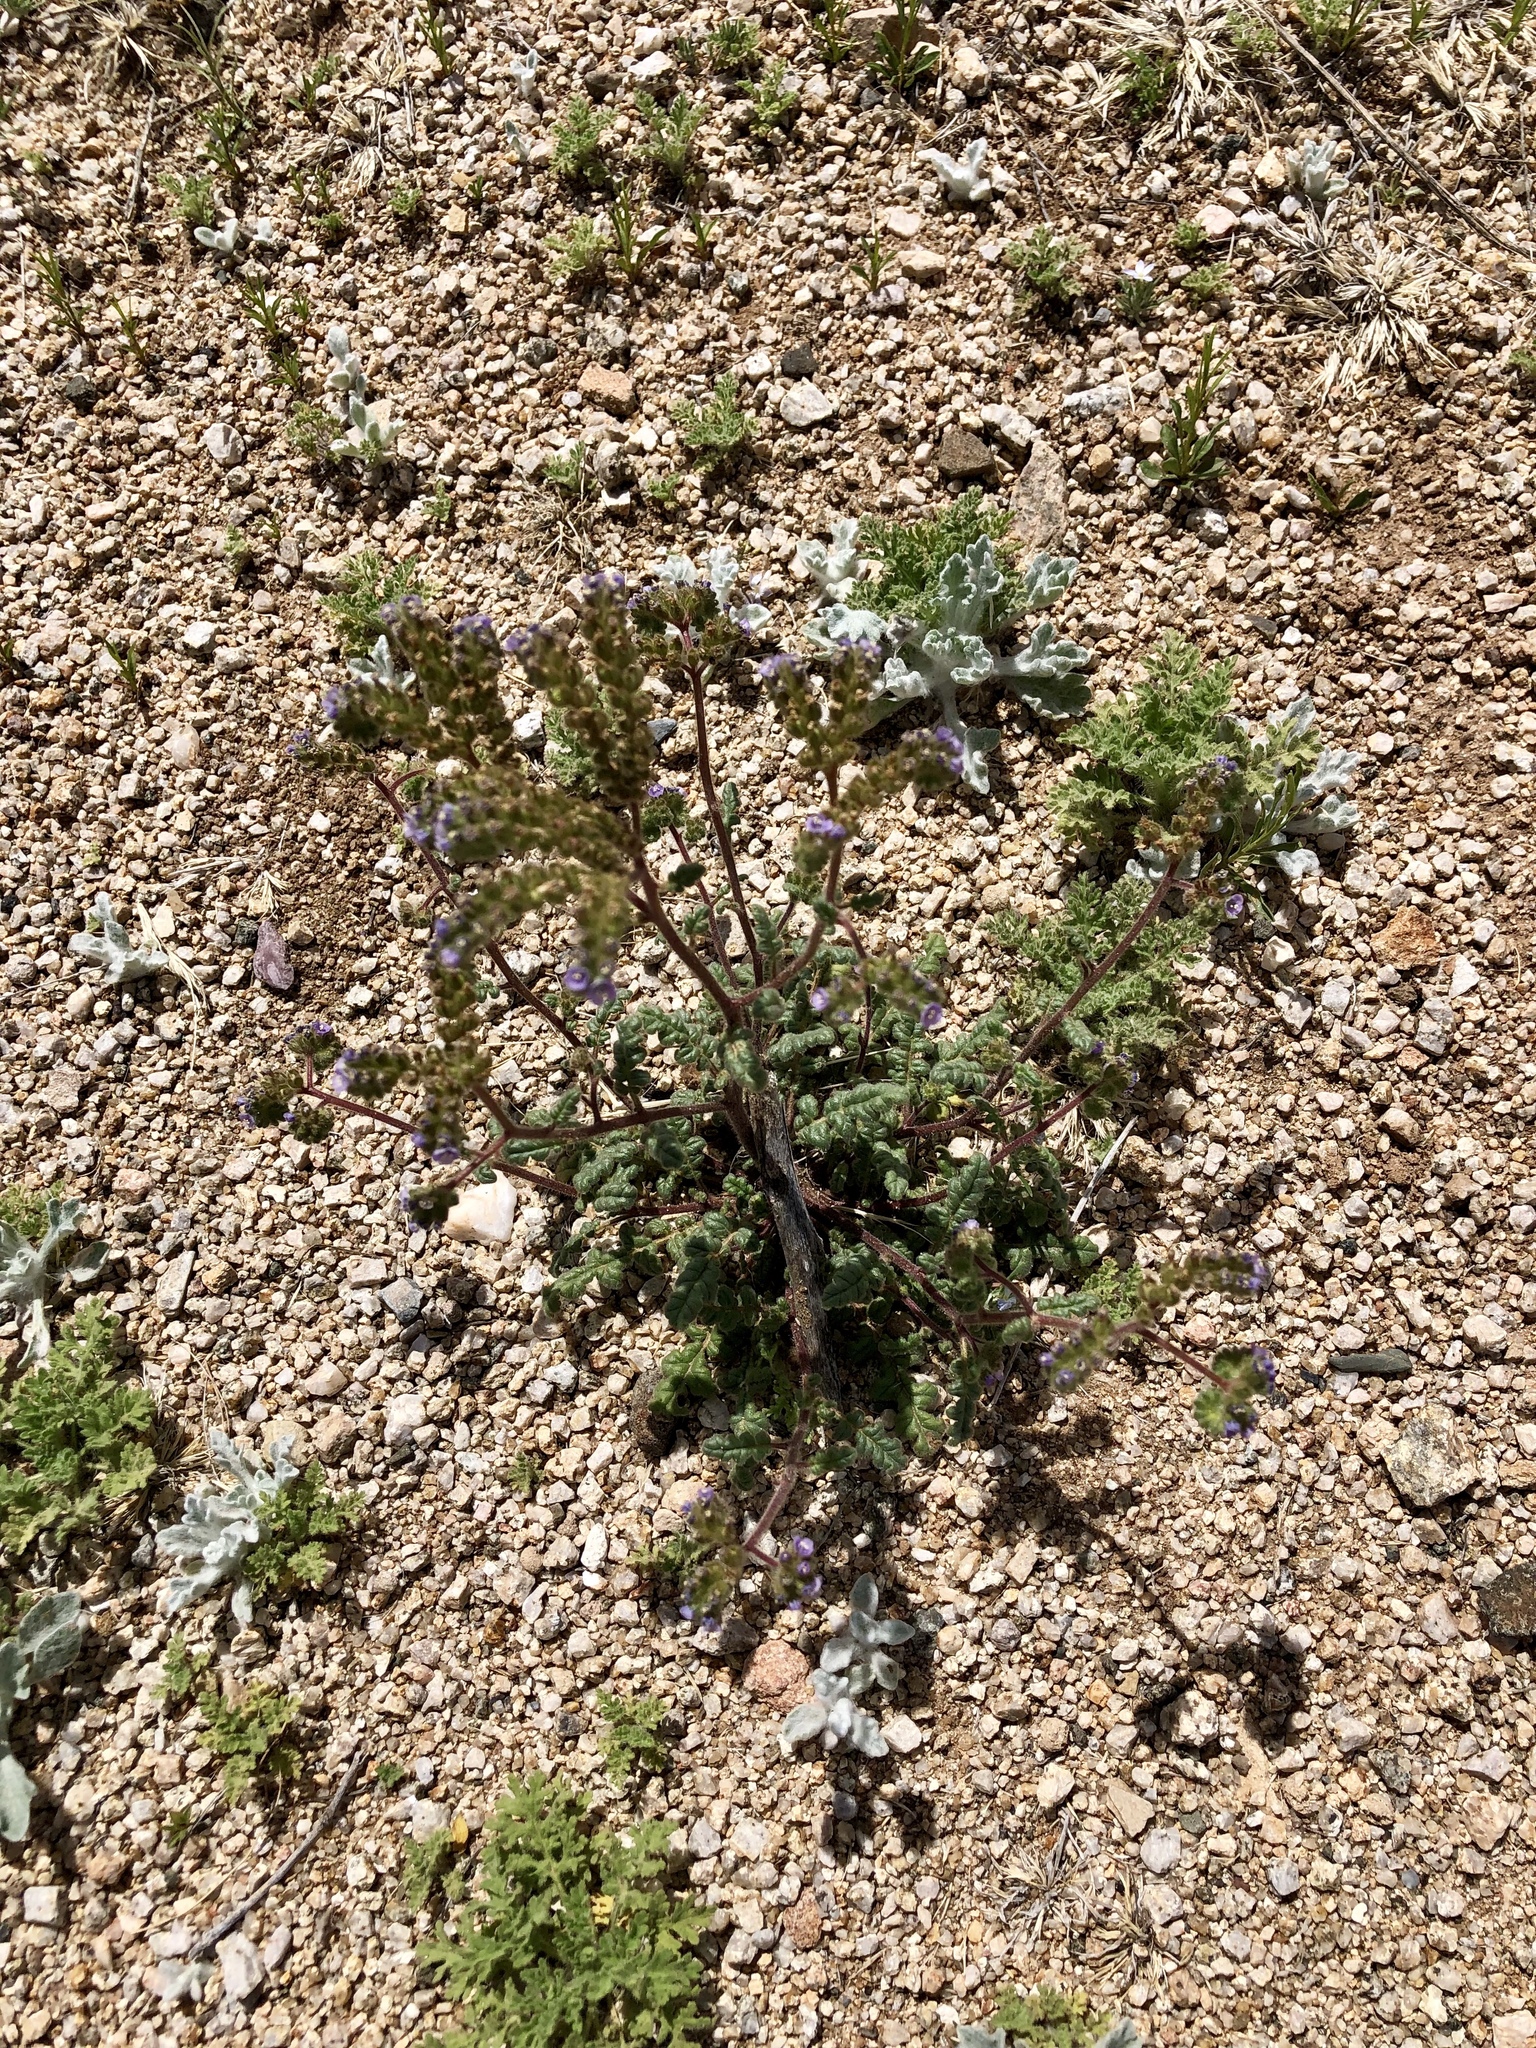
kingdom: Plantae
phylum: Tracheophyta
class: Magnoliopsida
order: Boraginales
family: Hydrophyllaceae
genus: Phacelia
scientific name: Phacelia coerulea
